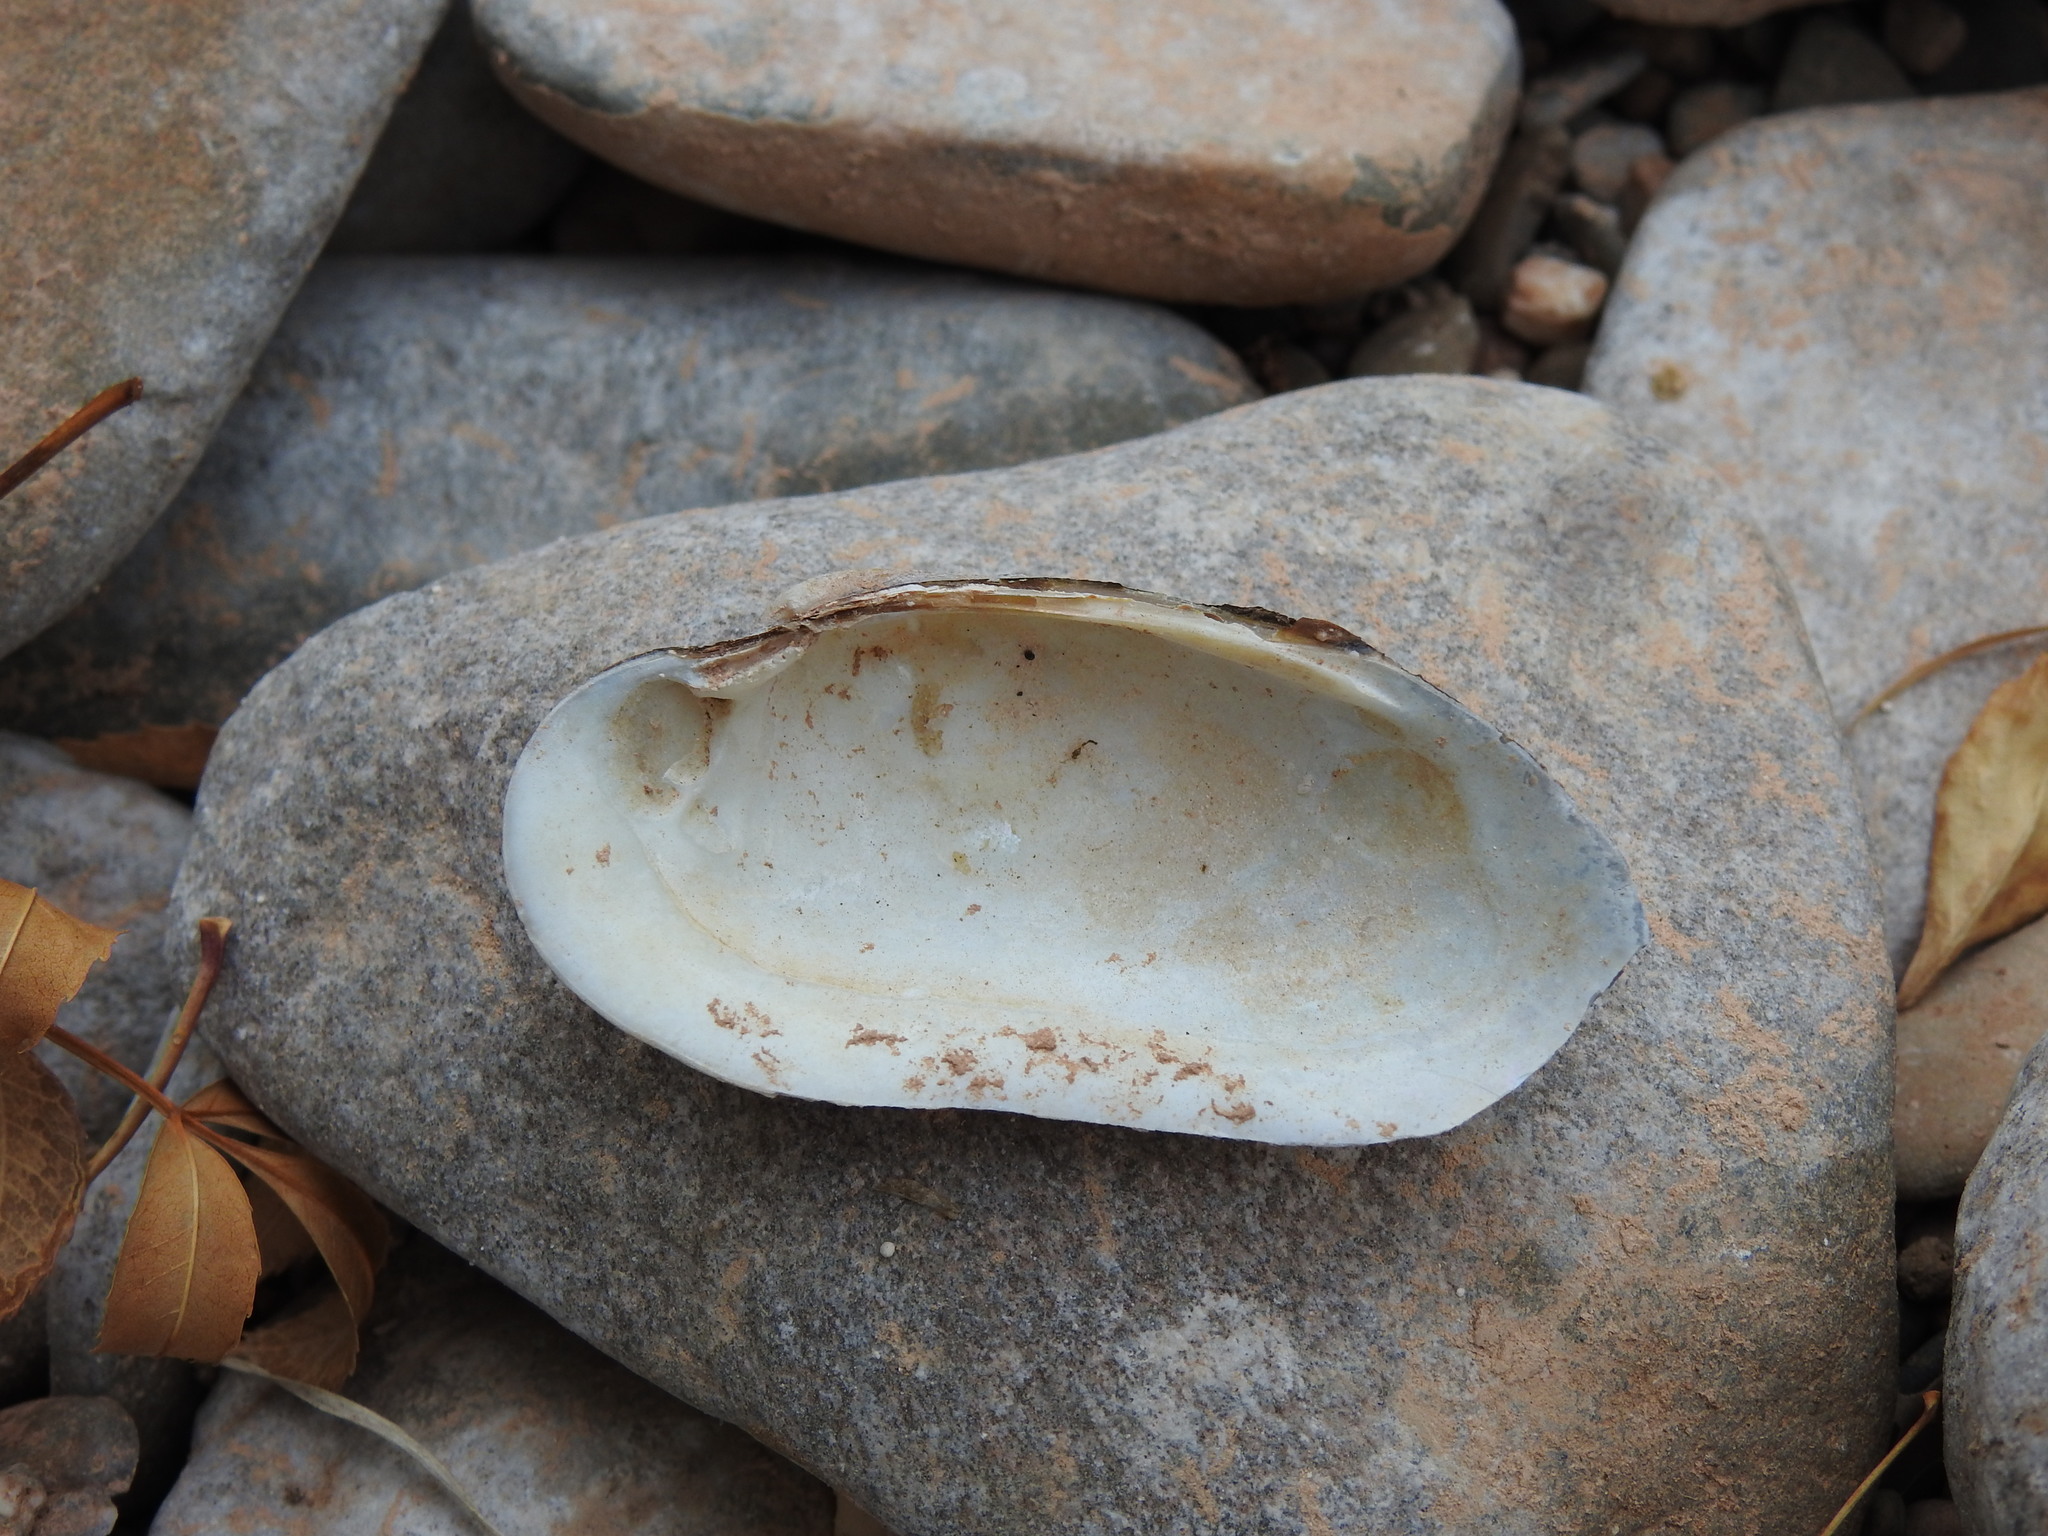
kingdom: Animalia
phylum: Mollusca
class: Bivalvia
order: Unionida
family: Unionidae
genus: Unio
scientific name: Unio delphinus
